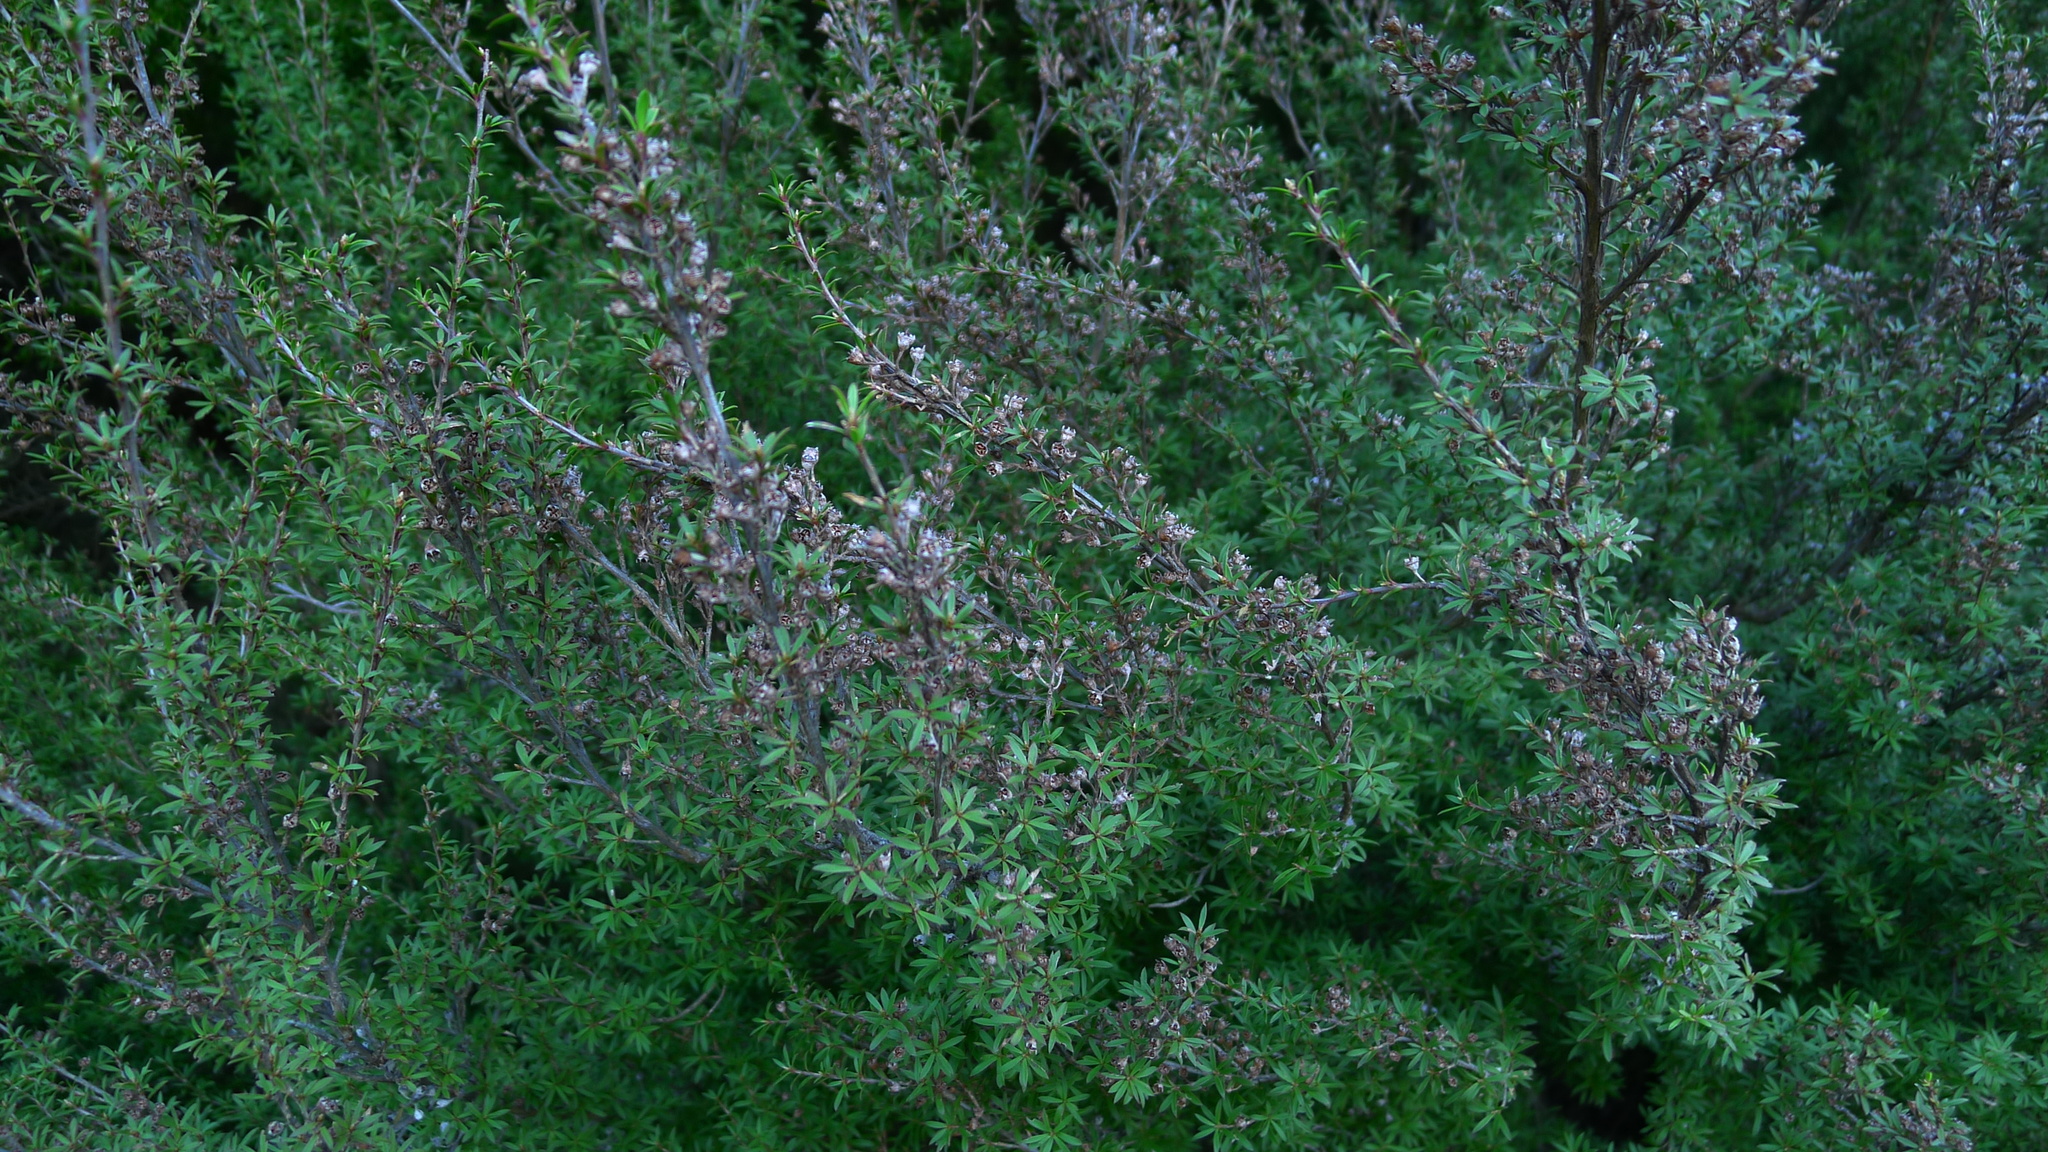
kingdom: Plantae
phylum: Tracheophyta
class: Magnoliopsida
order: Myrtales
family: Myrtaceae
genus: Kunzea
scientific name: Kunzea robusta
